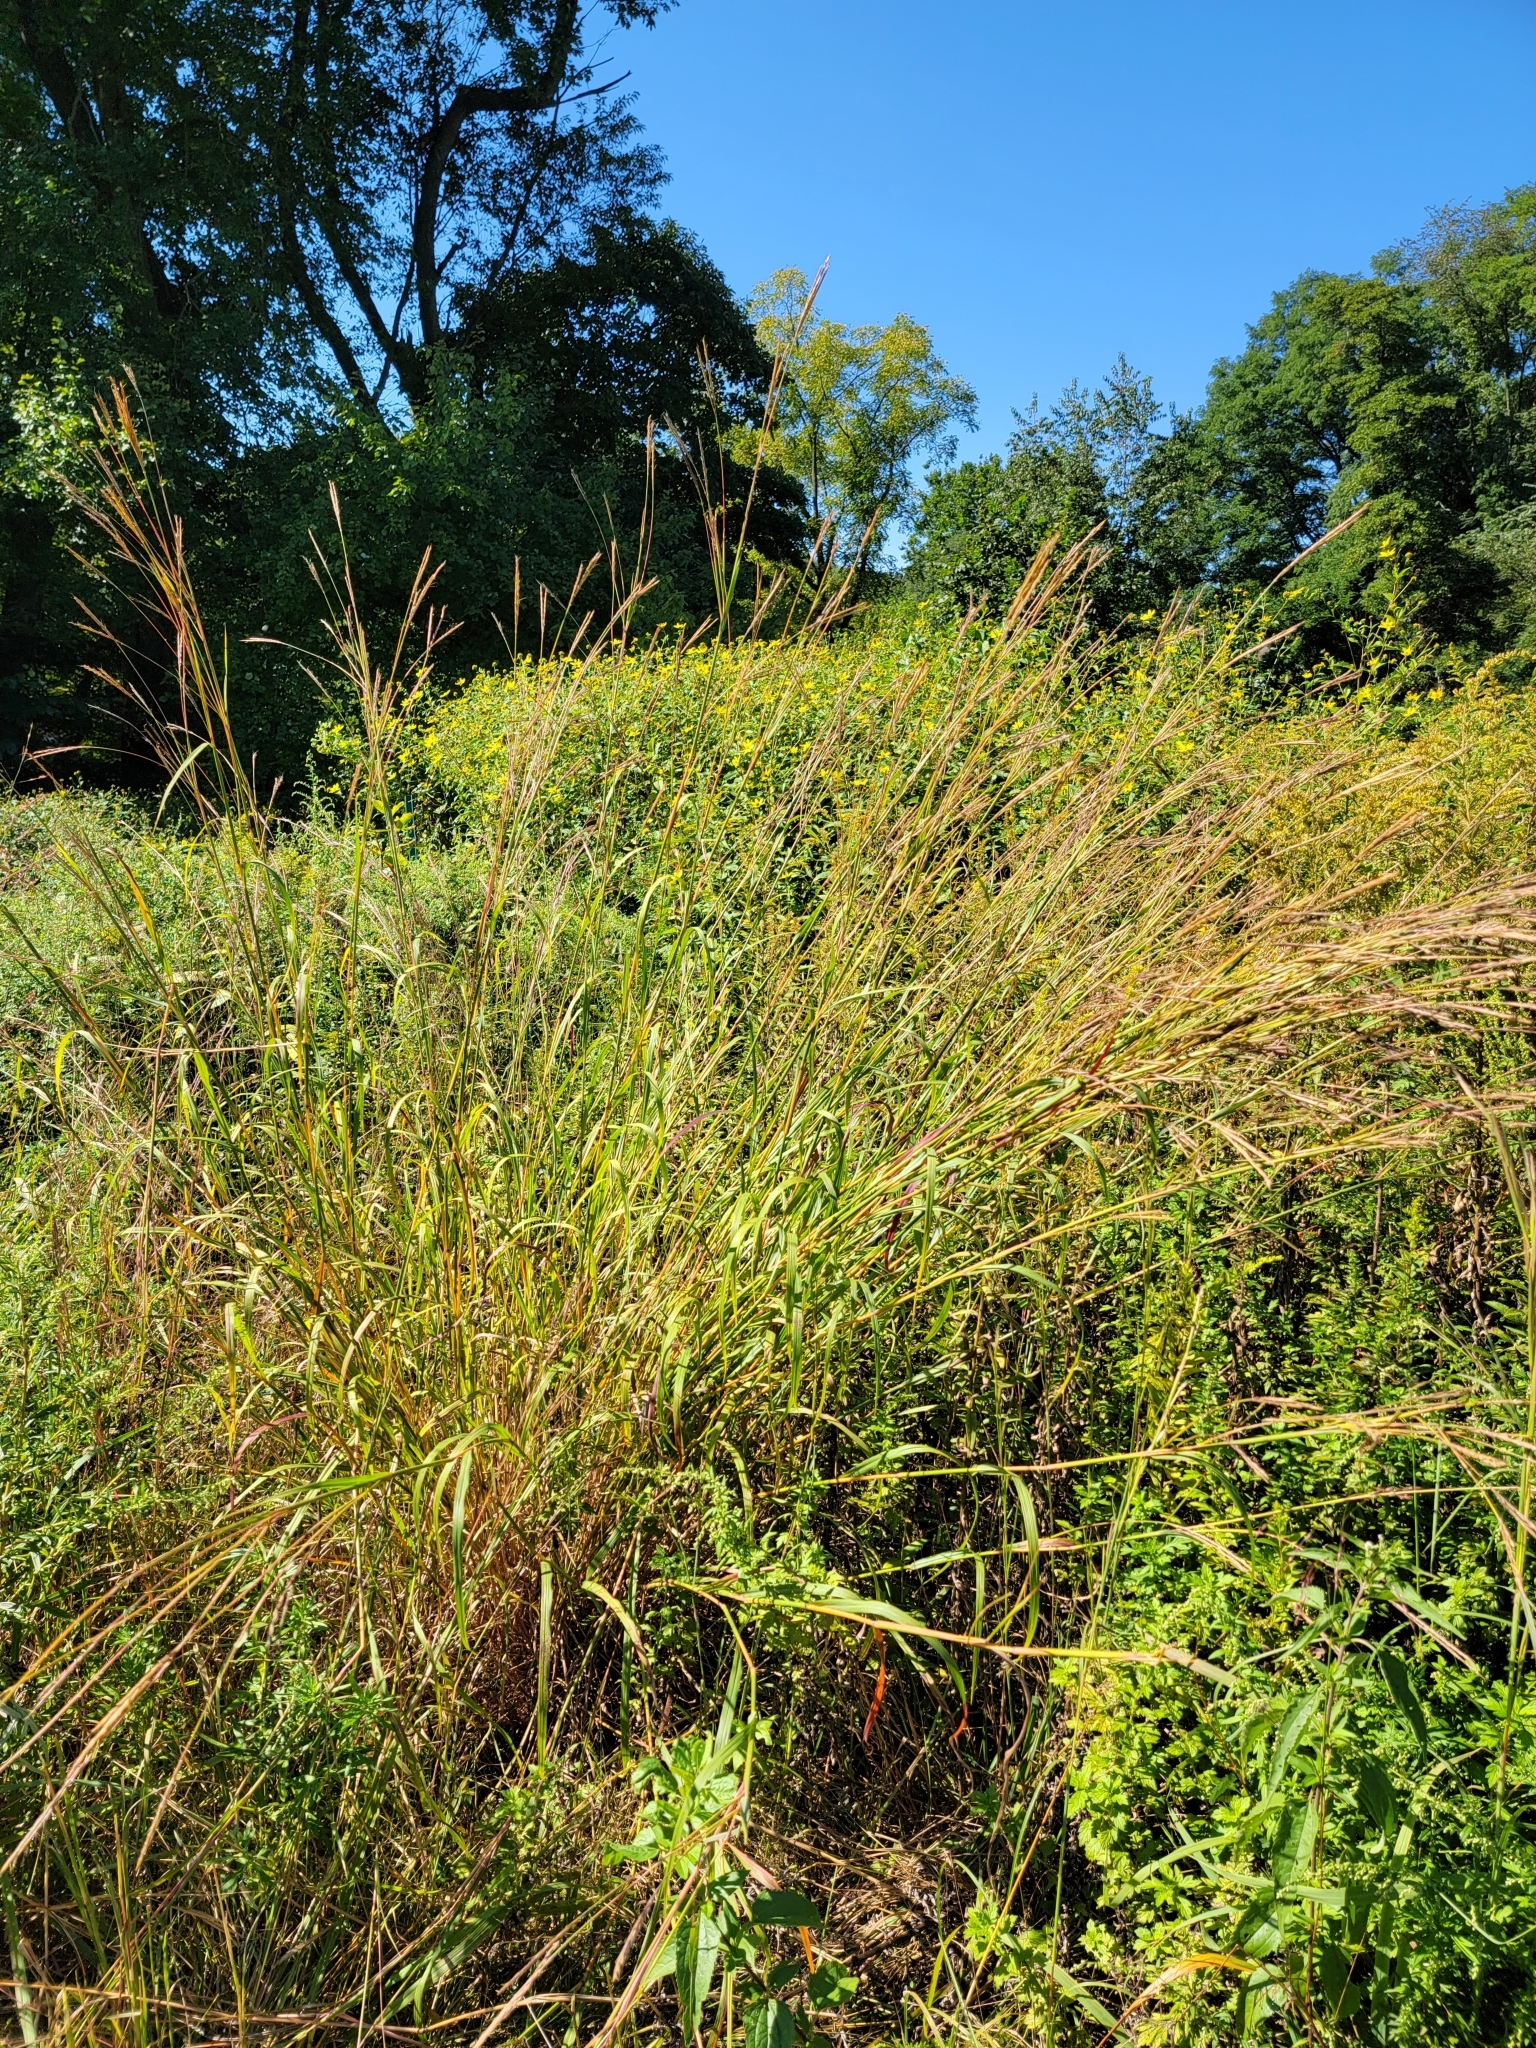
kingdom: Plantae
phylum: Tracheophyta
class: Liliopsida
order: Poales
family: Poaceae
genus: Andropogon
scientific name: Andropogon gerardi
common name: Big bluestem
